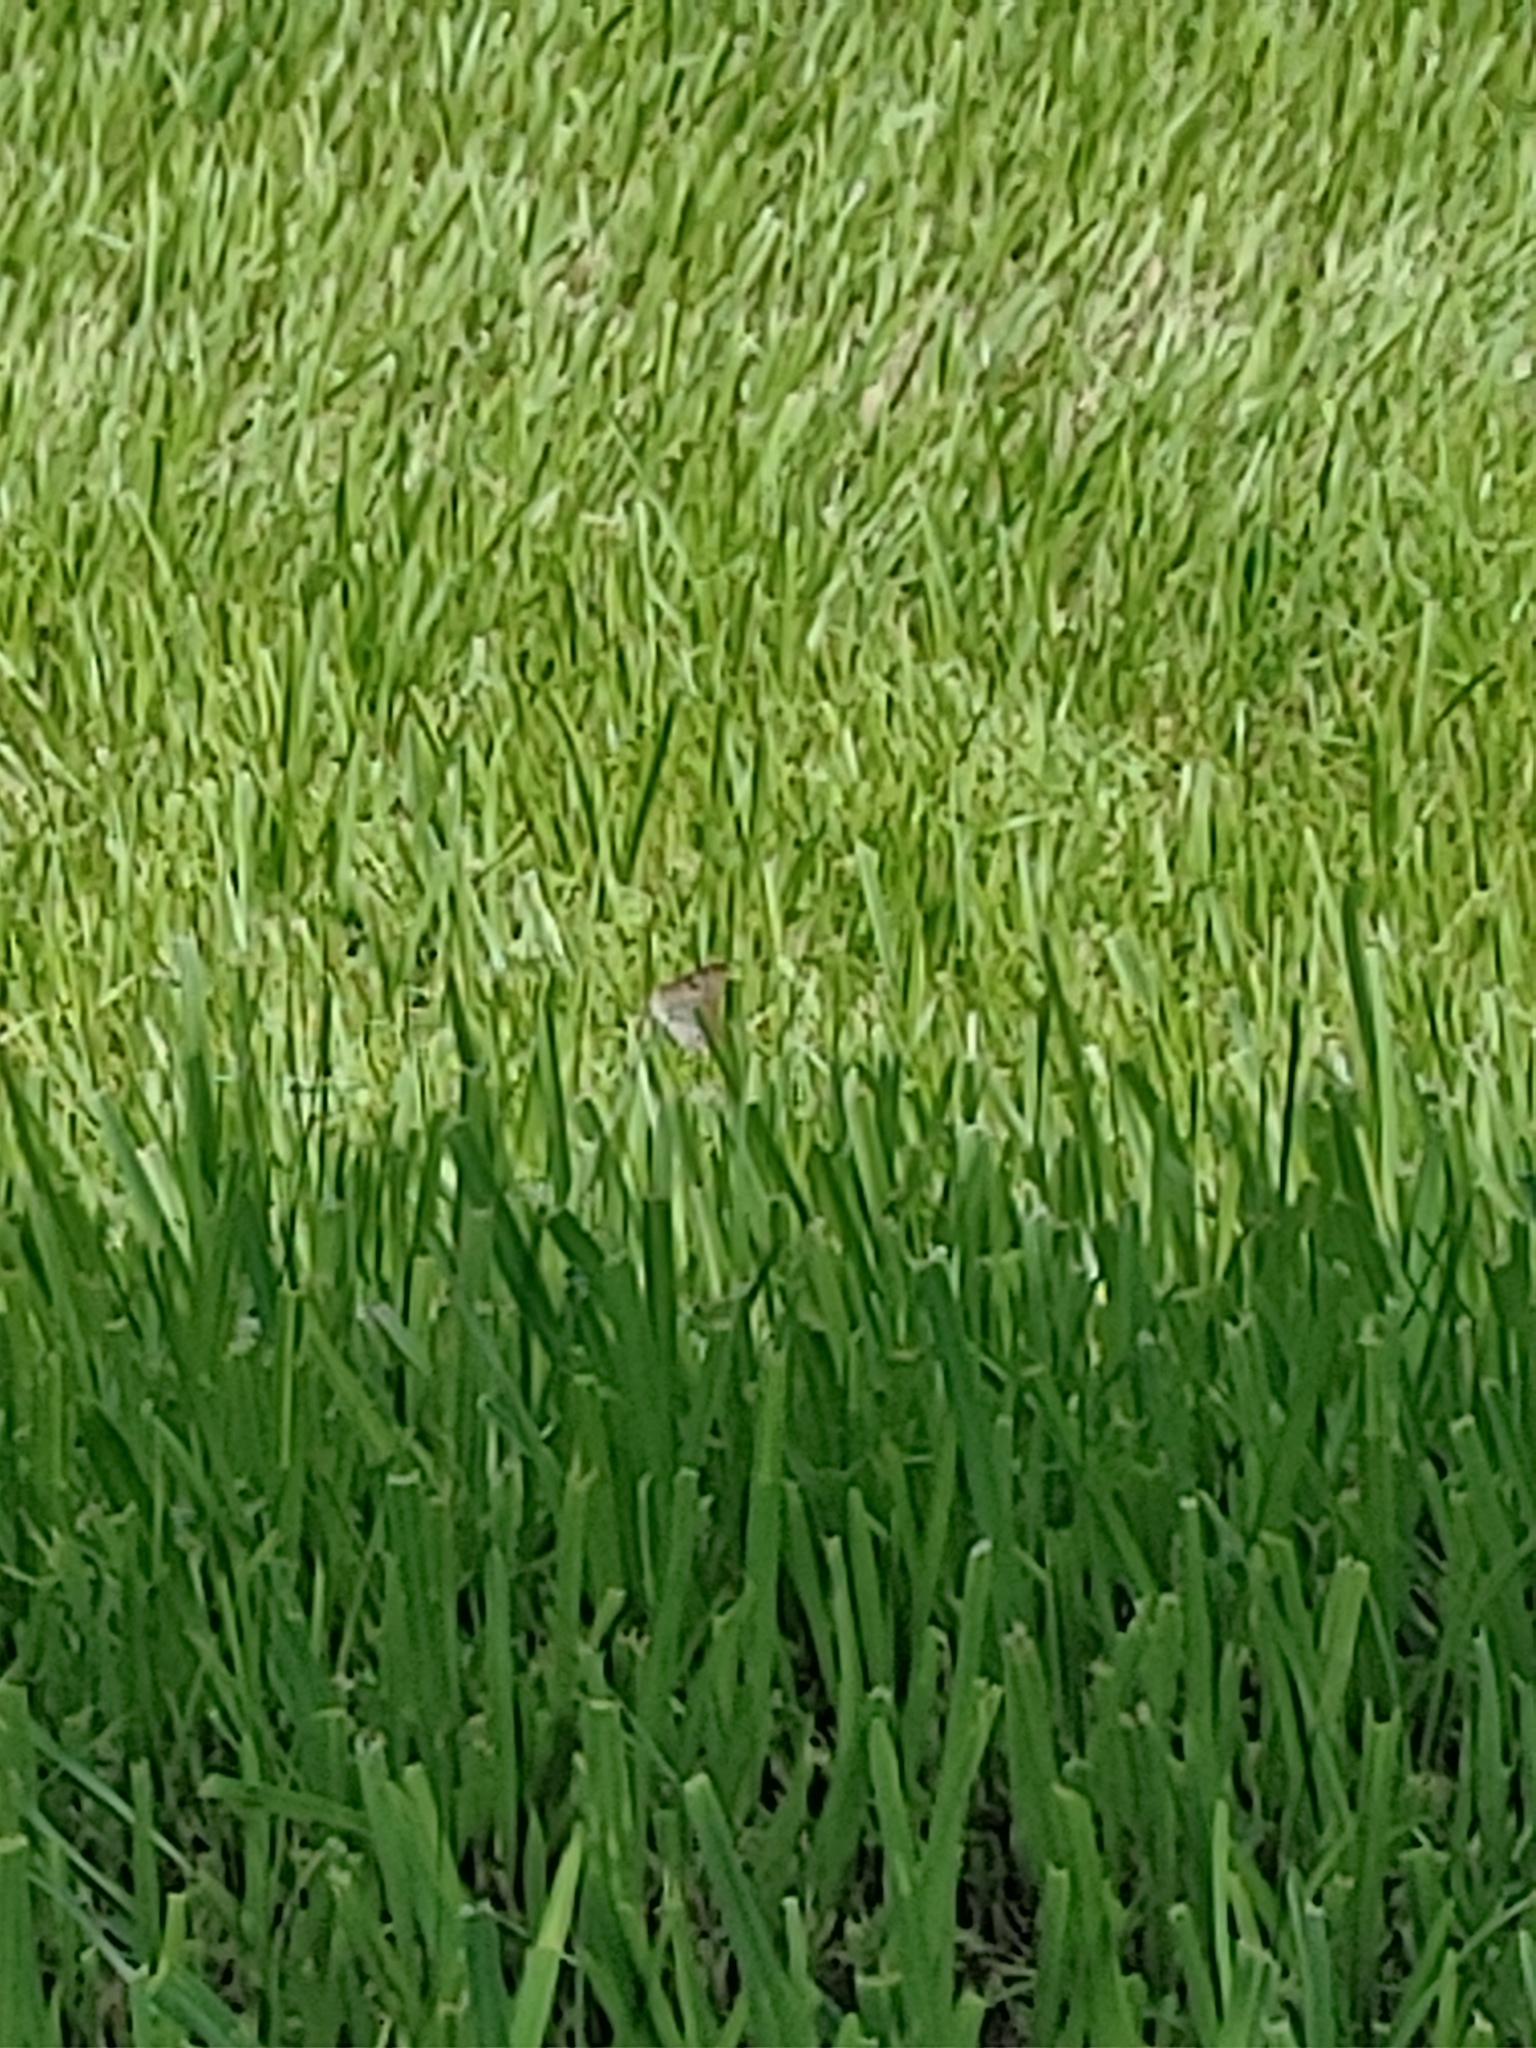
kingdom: Animalia
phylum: Arthropoda
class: Insecta
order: Lepidoptera
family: Nymphalidae
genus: Anartia
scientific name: Anartia jatrophae
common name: White peacock
